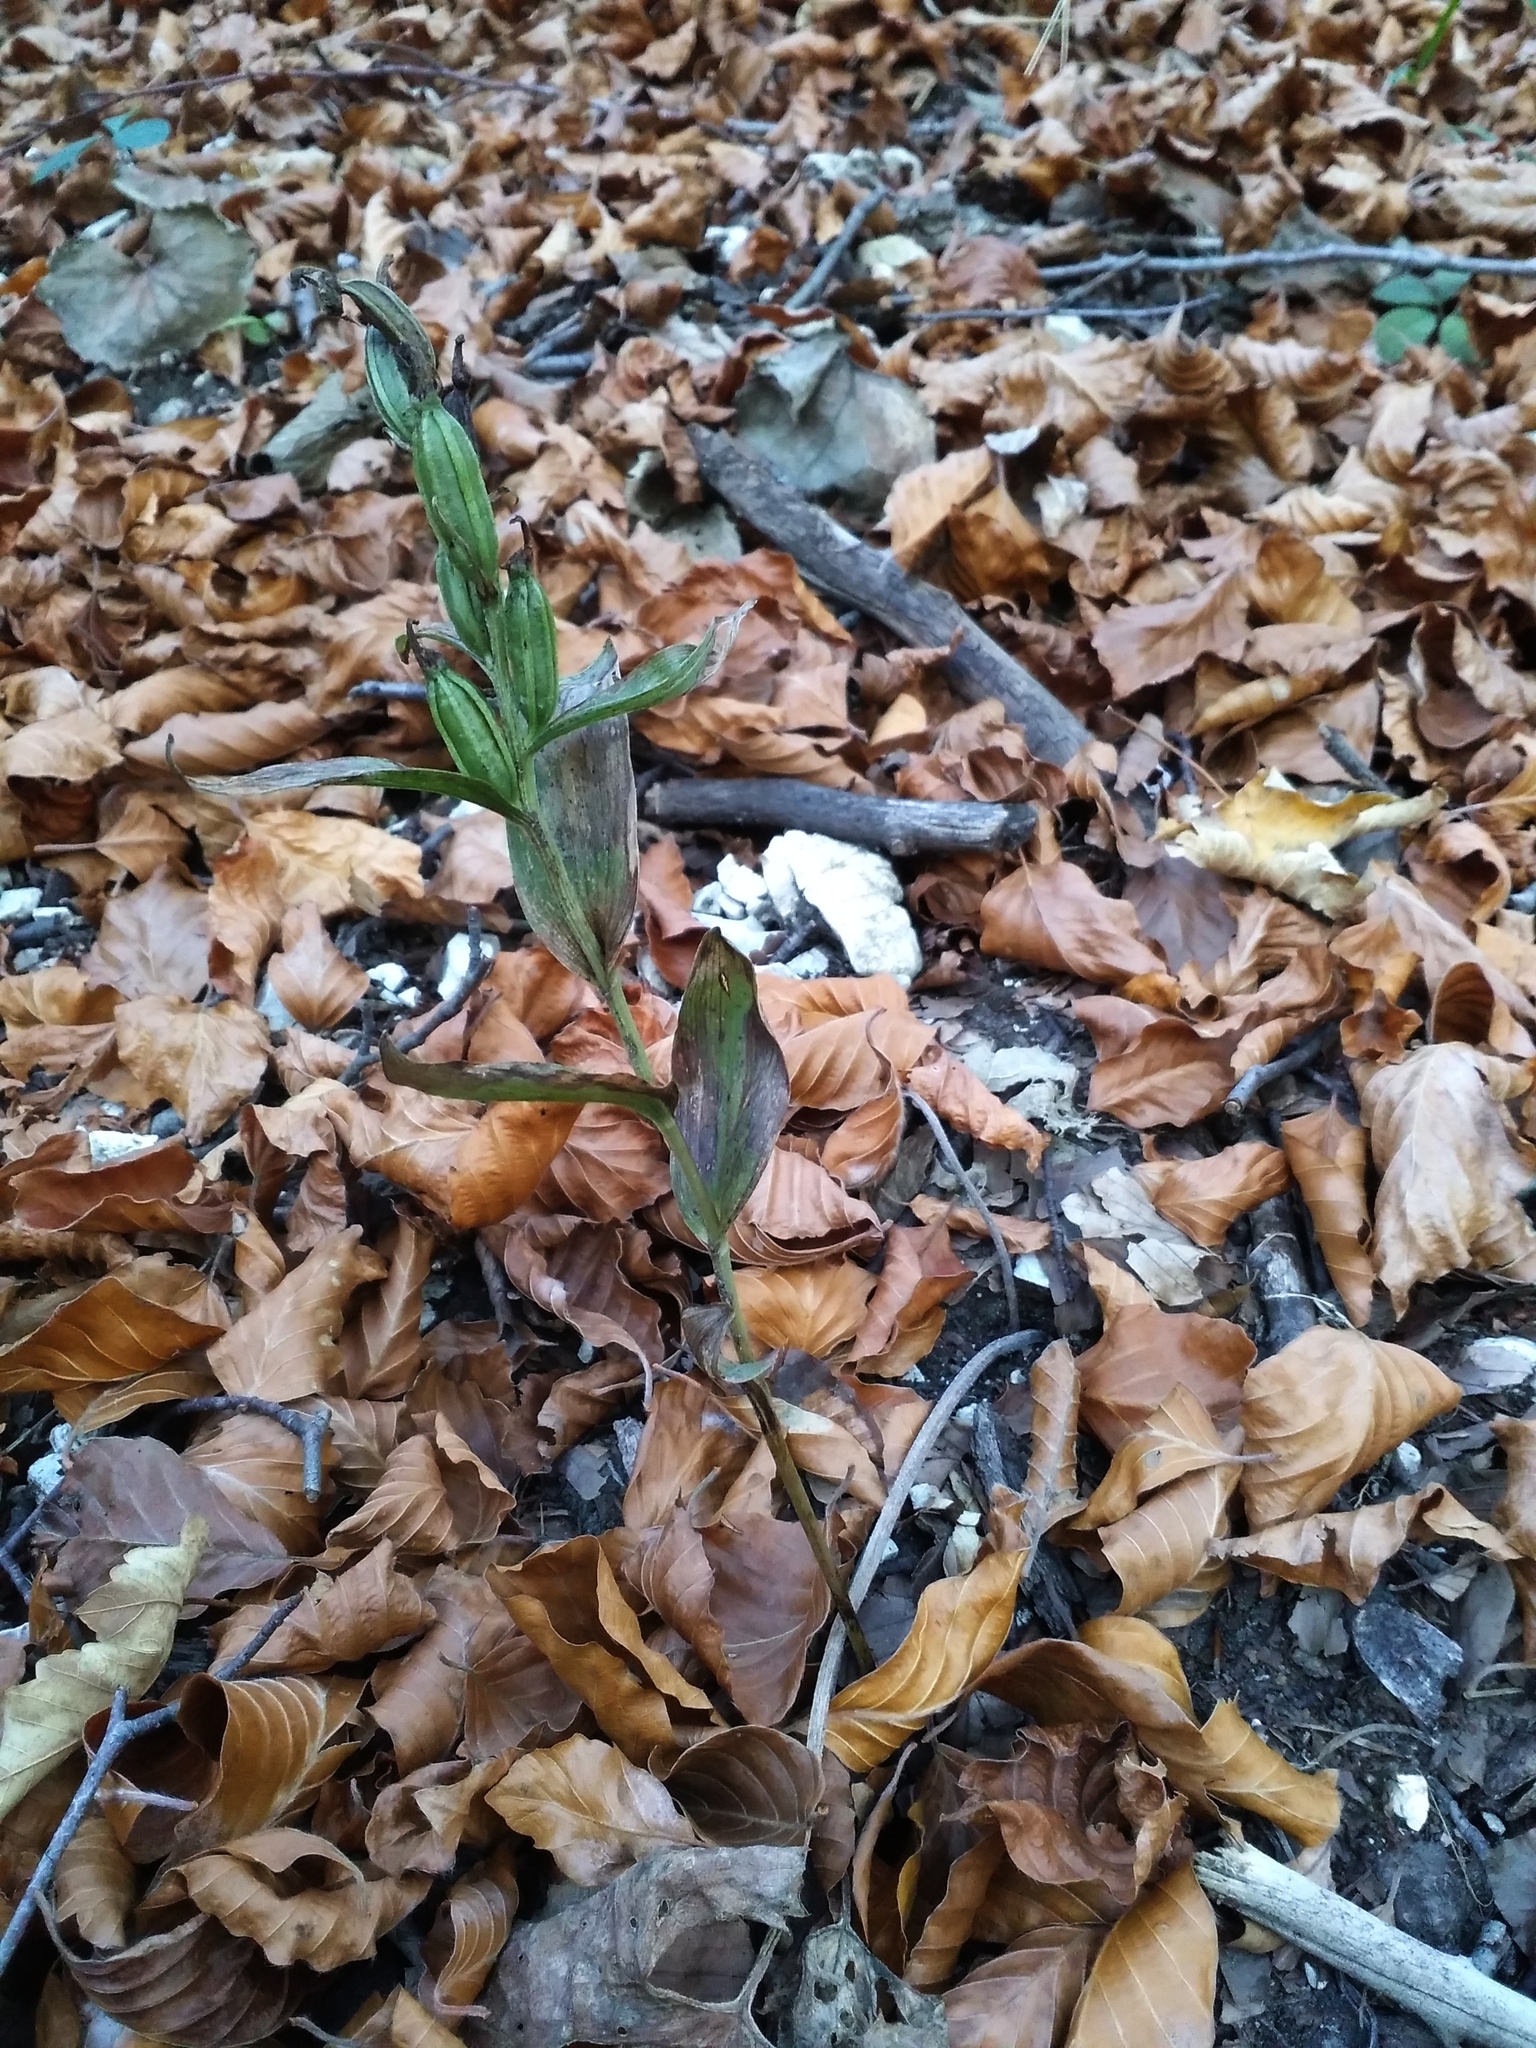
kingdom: Plantae
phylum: Tracheophyta
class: Liliopsida
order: Asparagales
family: Orchidaceae
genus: Cephalanthera
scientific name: Cephalanthera damasonium
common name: White helleborine
